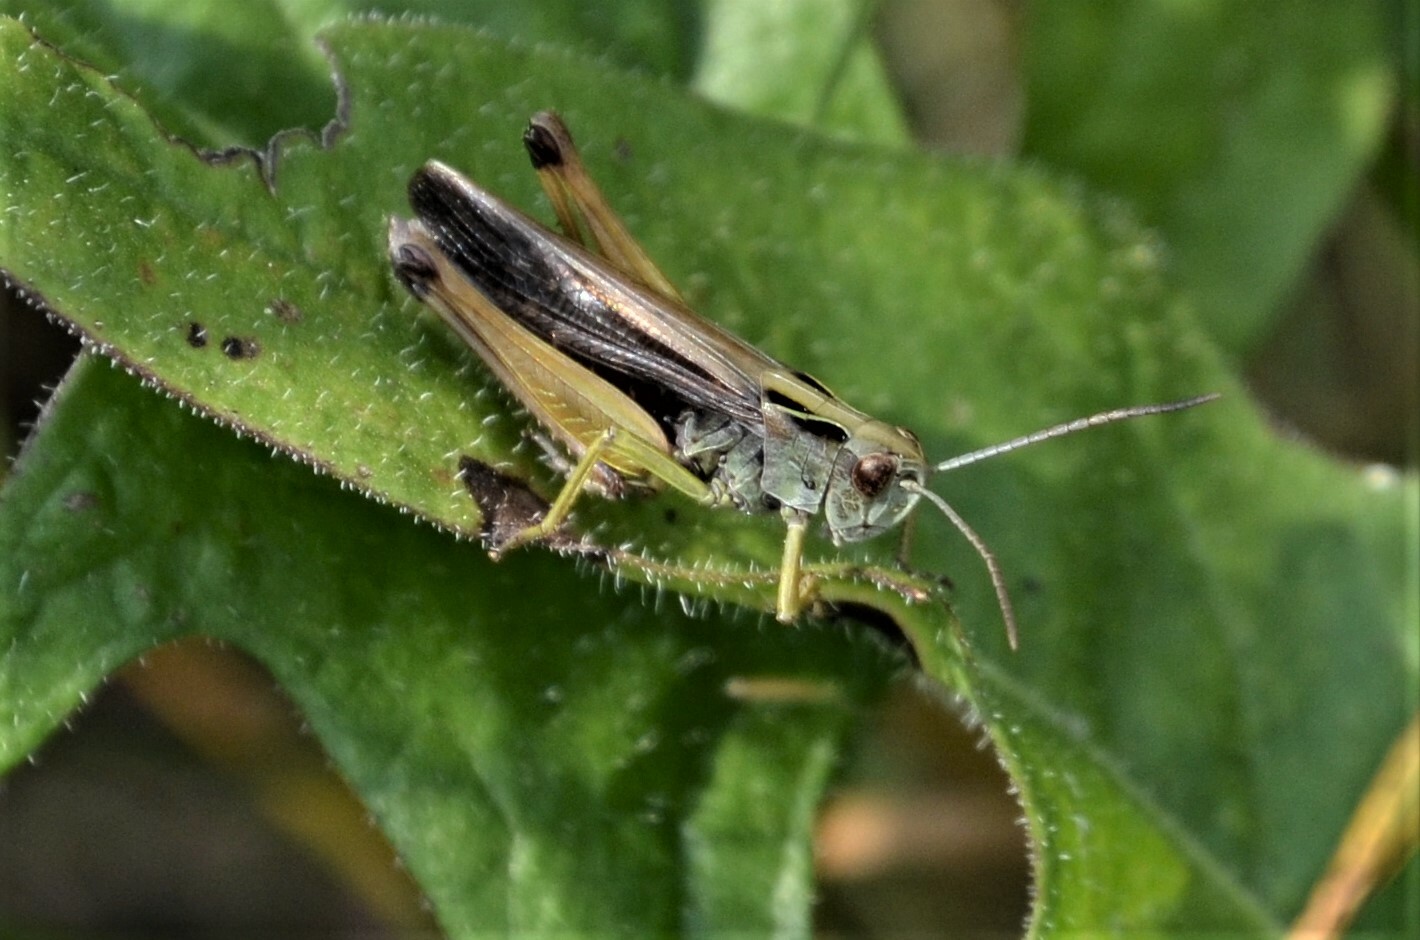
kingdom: Animalia
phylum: Arthropoda
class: Insecta
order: Orthoptera
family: Acrididae
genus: Omocestus
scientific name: Omocestus viridulus
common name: Common green grasshopper
